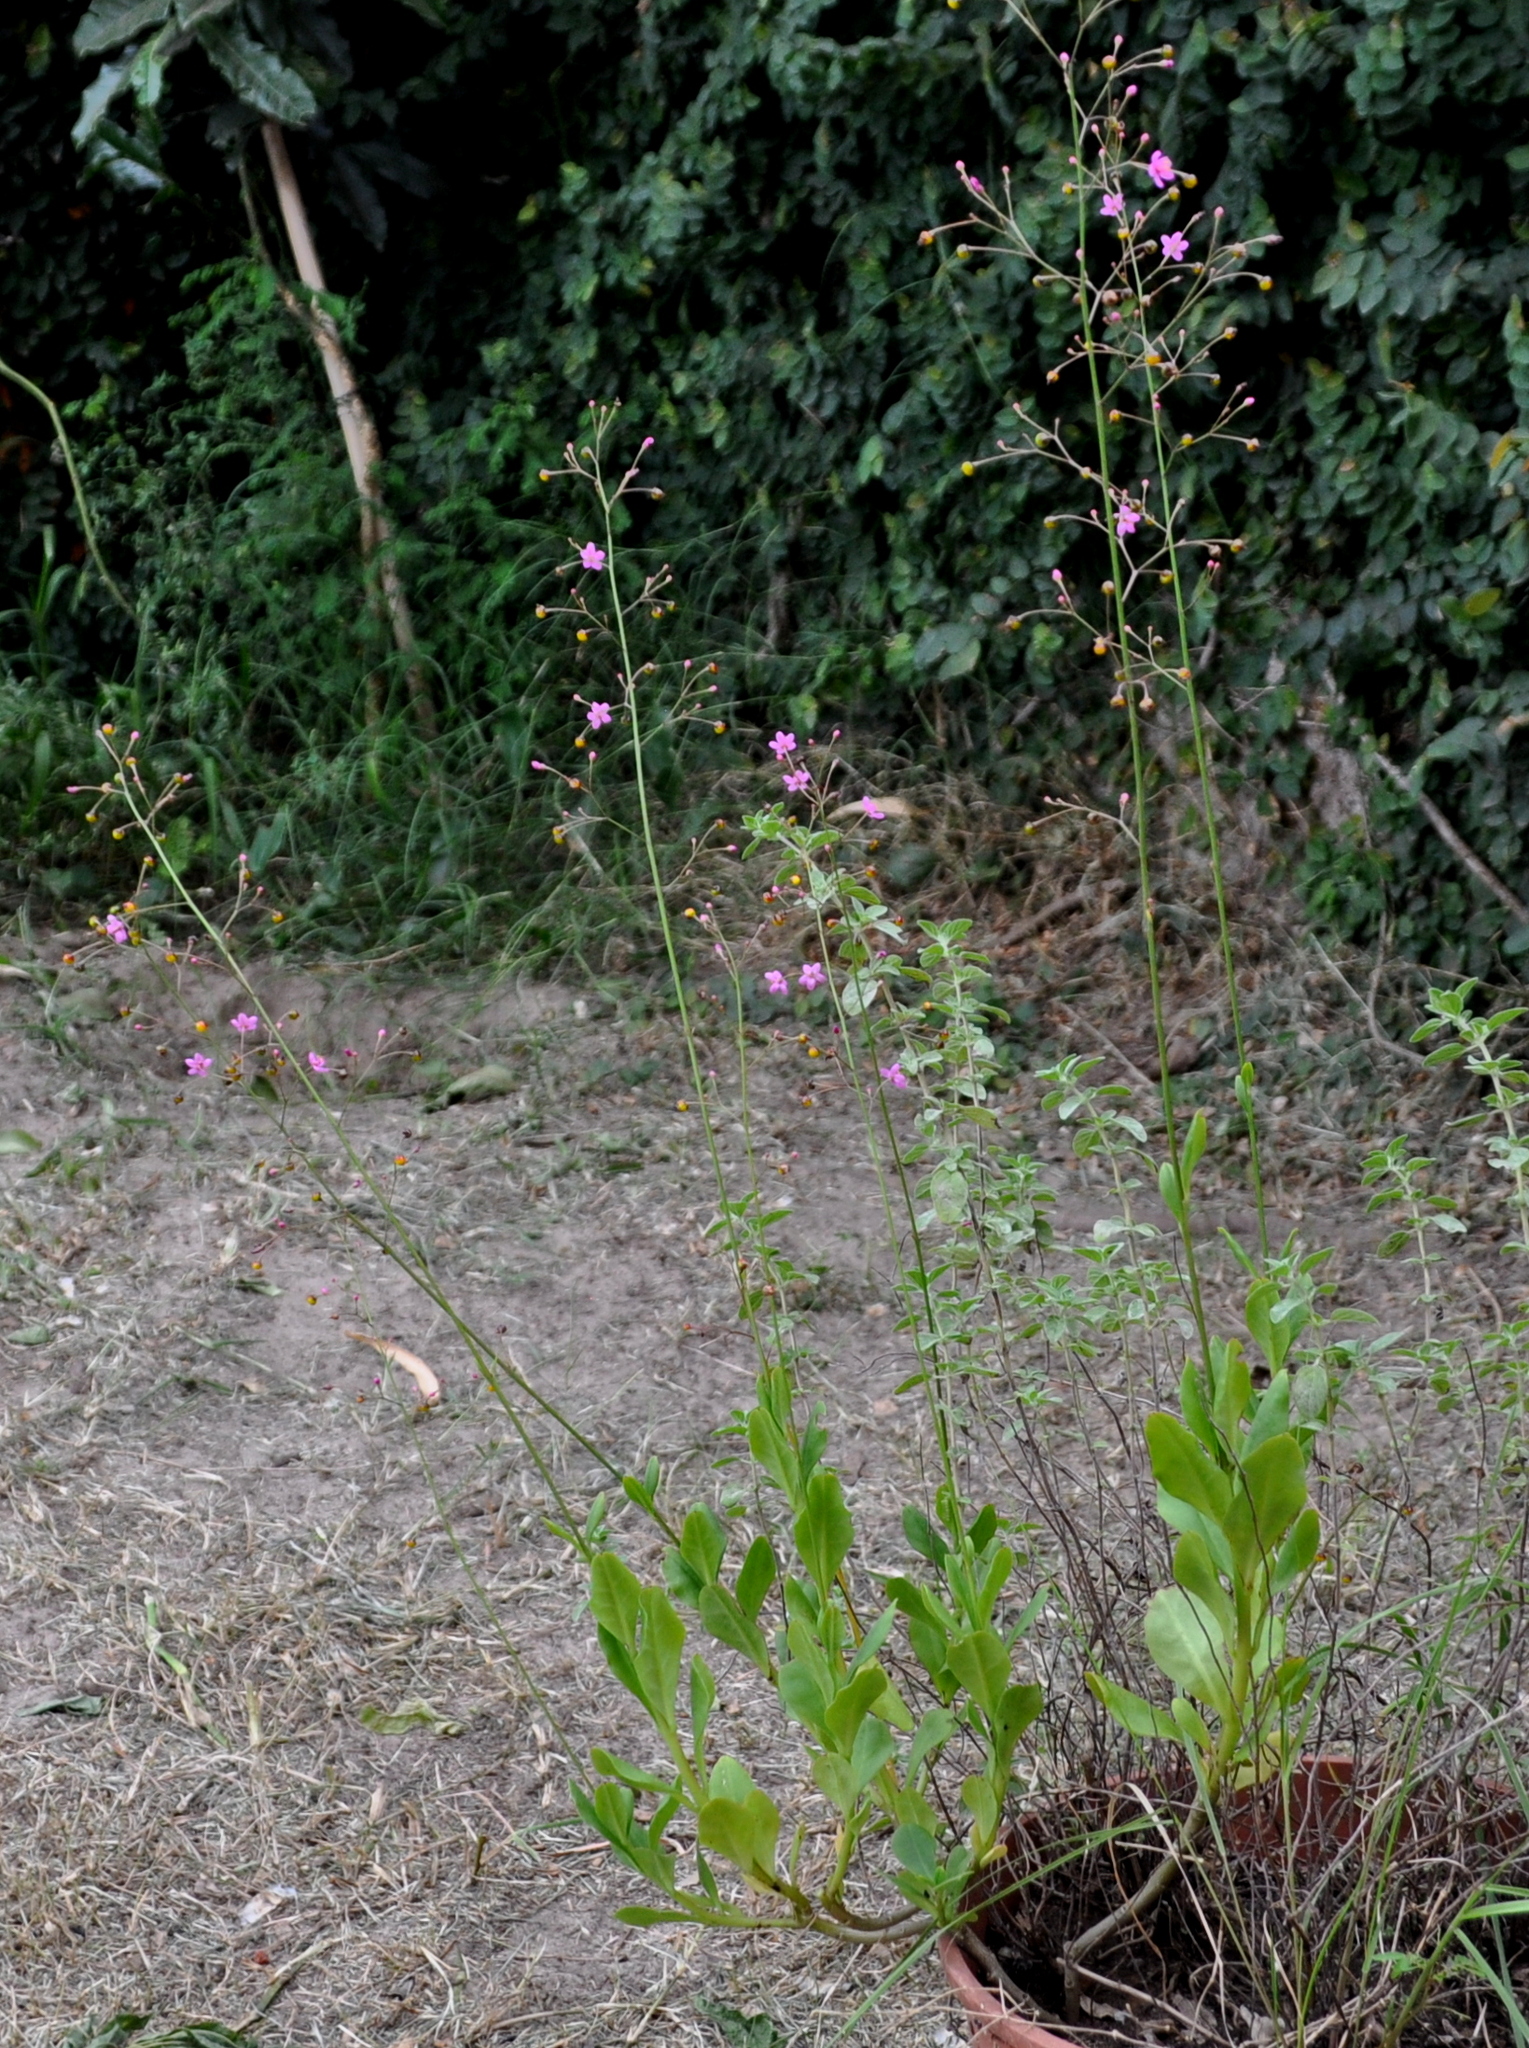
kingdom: Plantae
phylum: Tracheophyta
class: Magnoliopsida
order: Caryophyllales
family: Talinaceae
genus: Talinum
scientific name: Talinum paniculatum
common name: Jewels of opar
